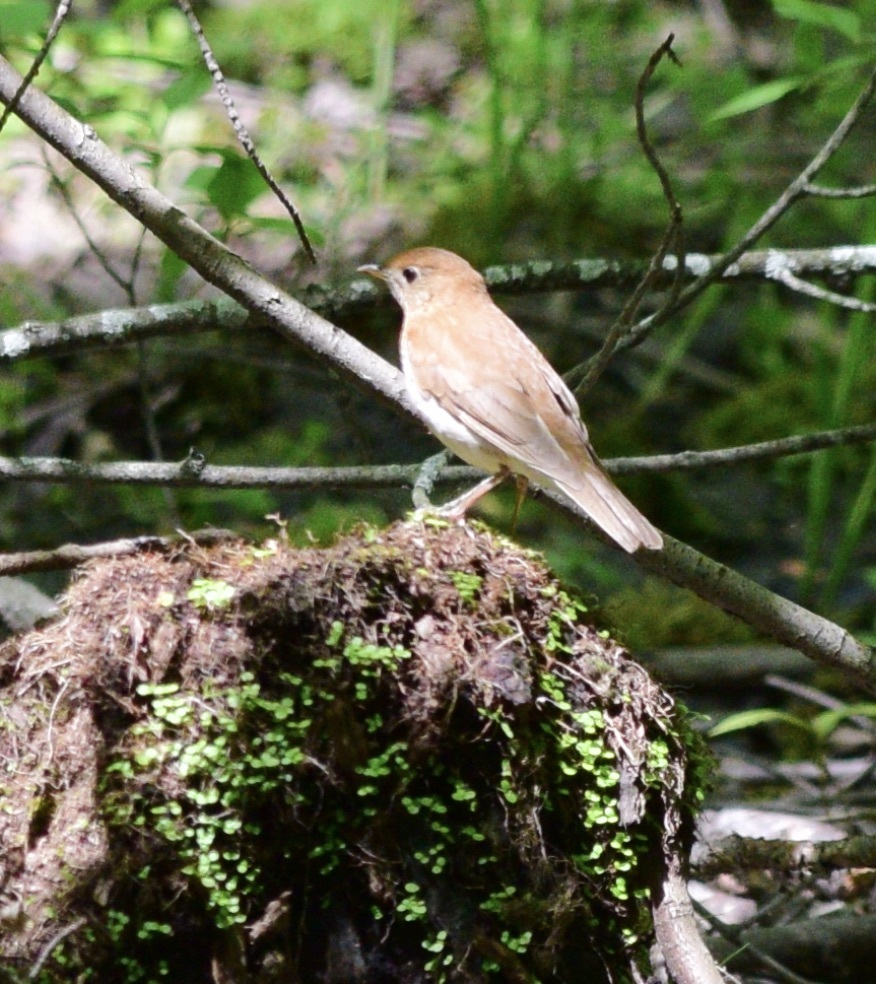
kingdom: Animalia
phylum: Chordata
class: Aves
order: Passeriformes
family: Turdidae
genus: Catharus
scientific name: Catharus fuscescens
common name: Veery
